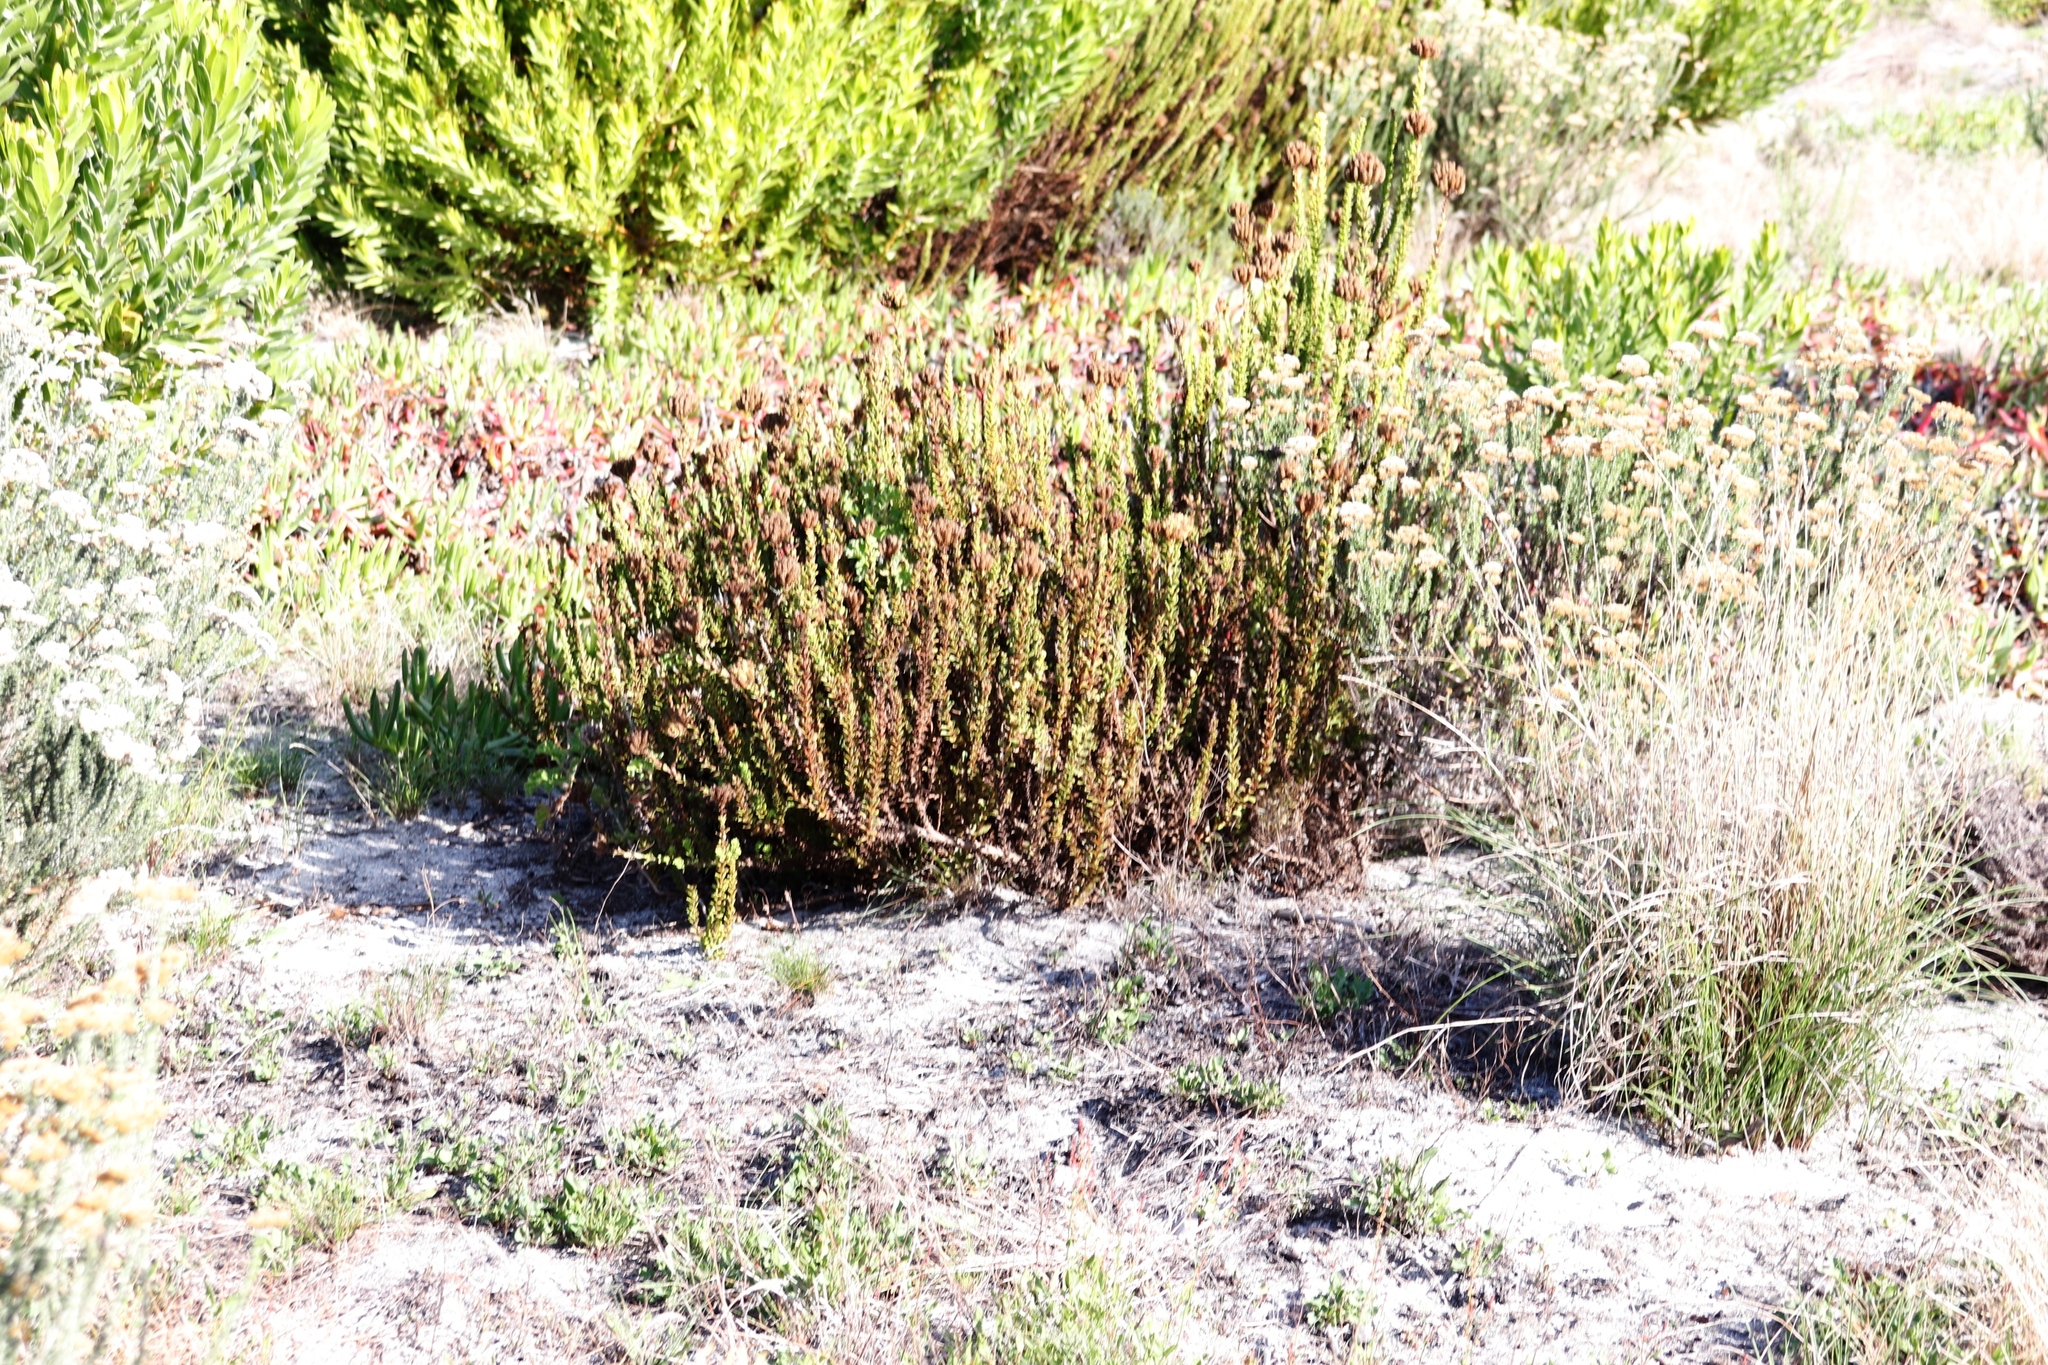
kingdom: Plantae
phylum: Tracheophyta
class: Magnoliopsida
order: Lamiales
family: Scrophulariaceae
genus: Pseudoselago
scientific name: Pseudoselago serrata
